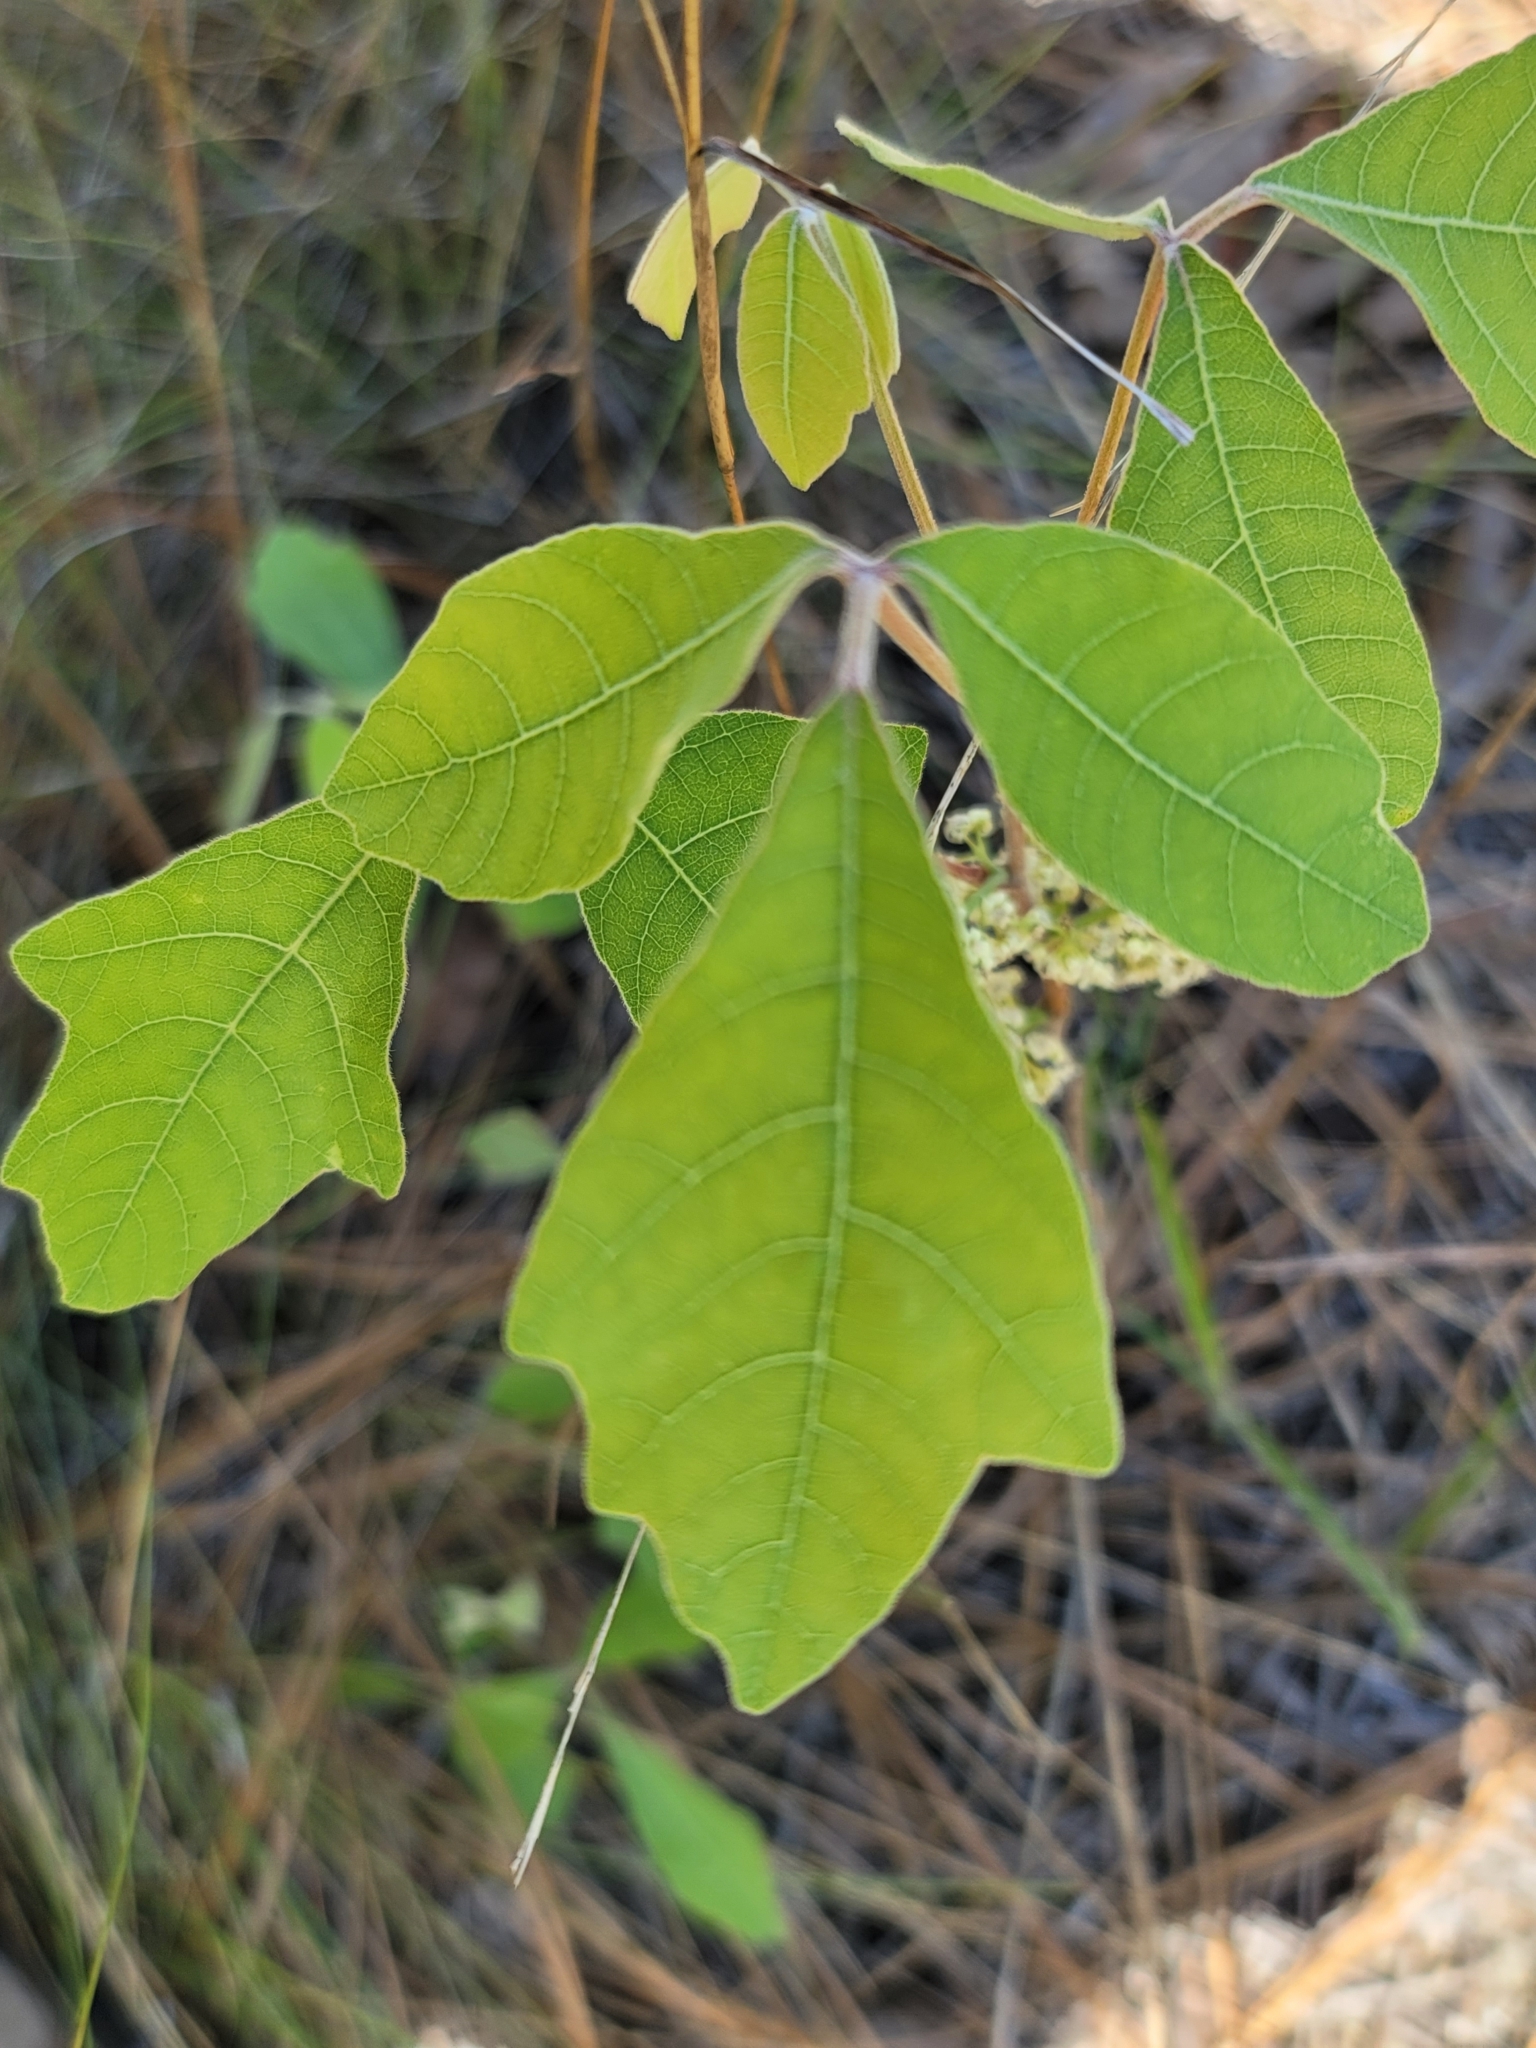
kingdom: Plantae
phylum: Tracheophyta
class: Magnoliopsida
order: Sapindales
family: Anacardiaceae
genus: Toxicodendron
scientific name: Toxicodendron pubescens
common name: Eastern poison-oak
